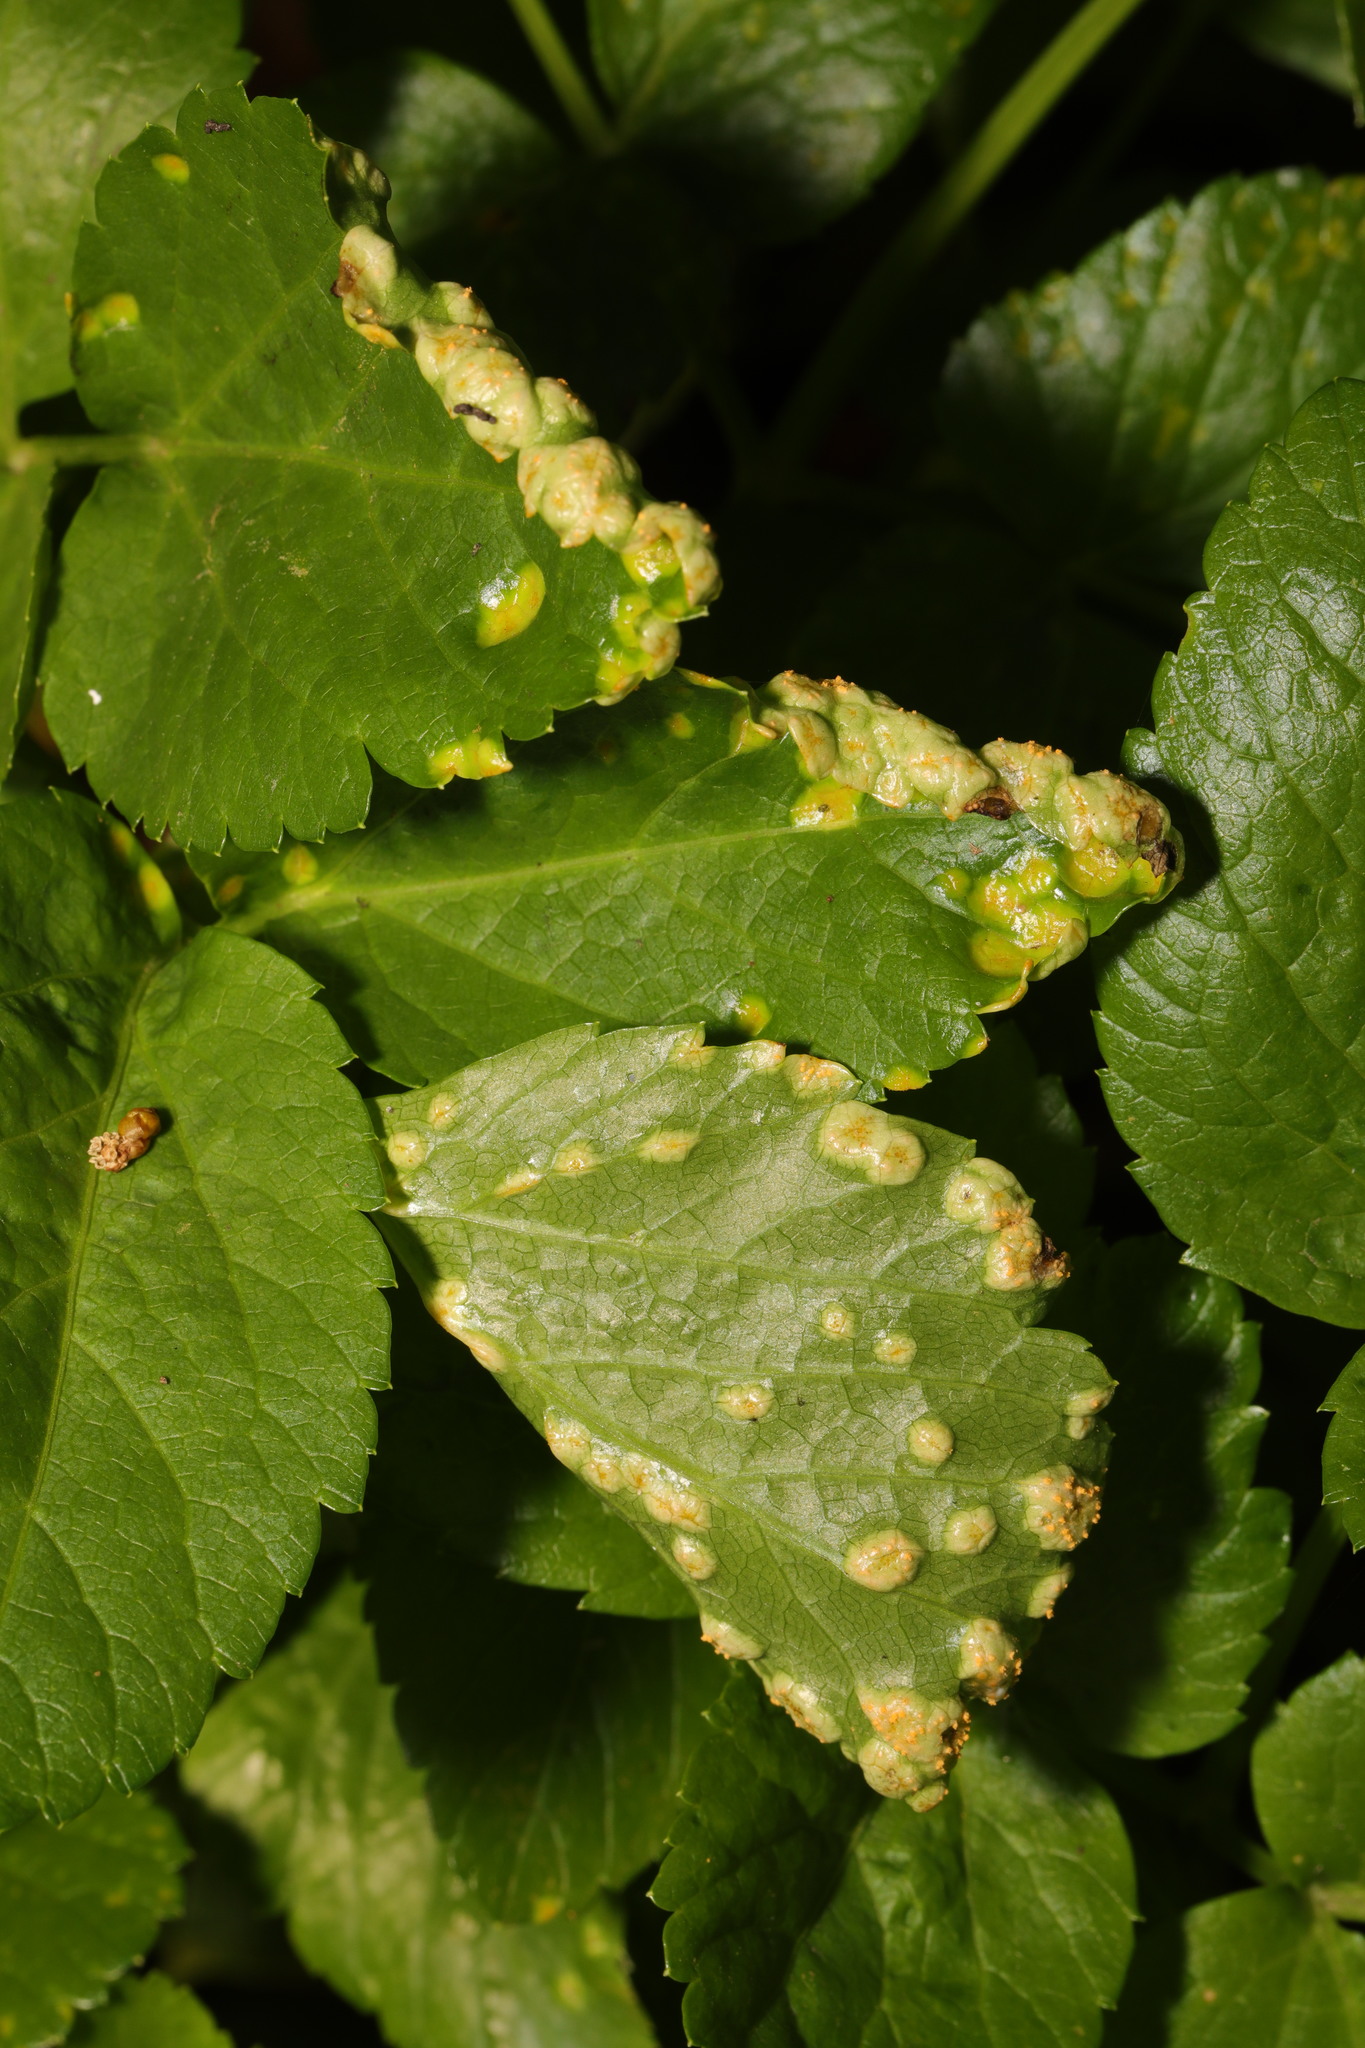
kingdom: Fungi
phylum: Basidiomycota
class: Pucciniomycetes
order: Pucciniales
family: Pucciniaceae
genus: Puccinia
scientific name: Puccinia smyrnii
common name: Alexanders rust
